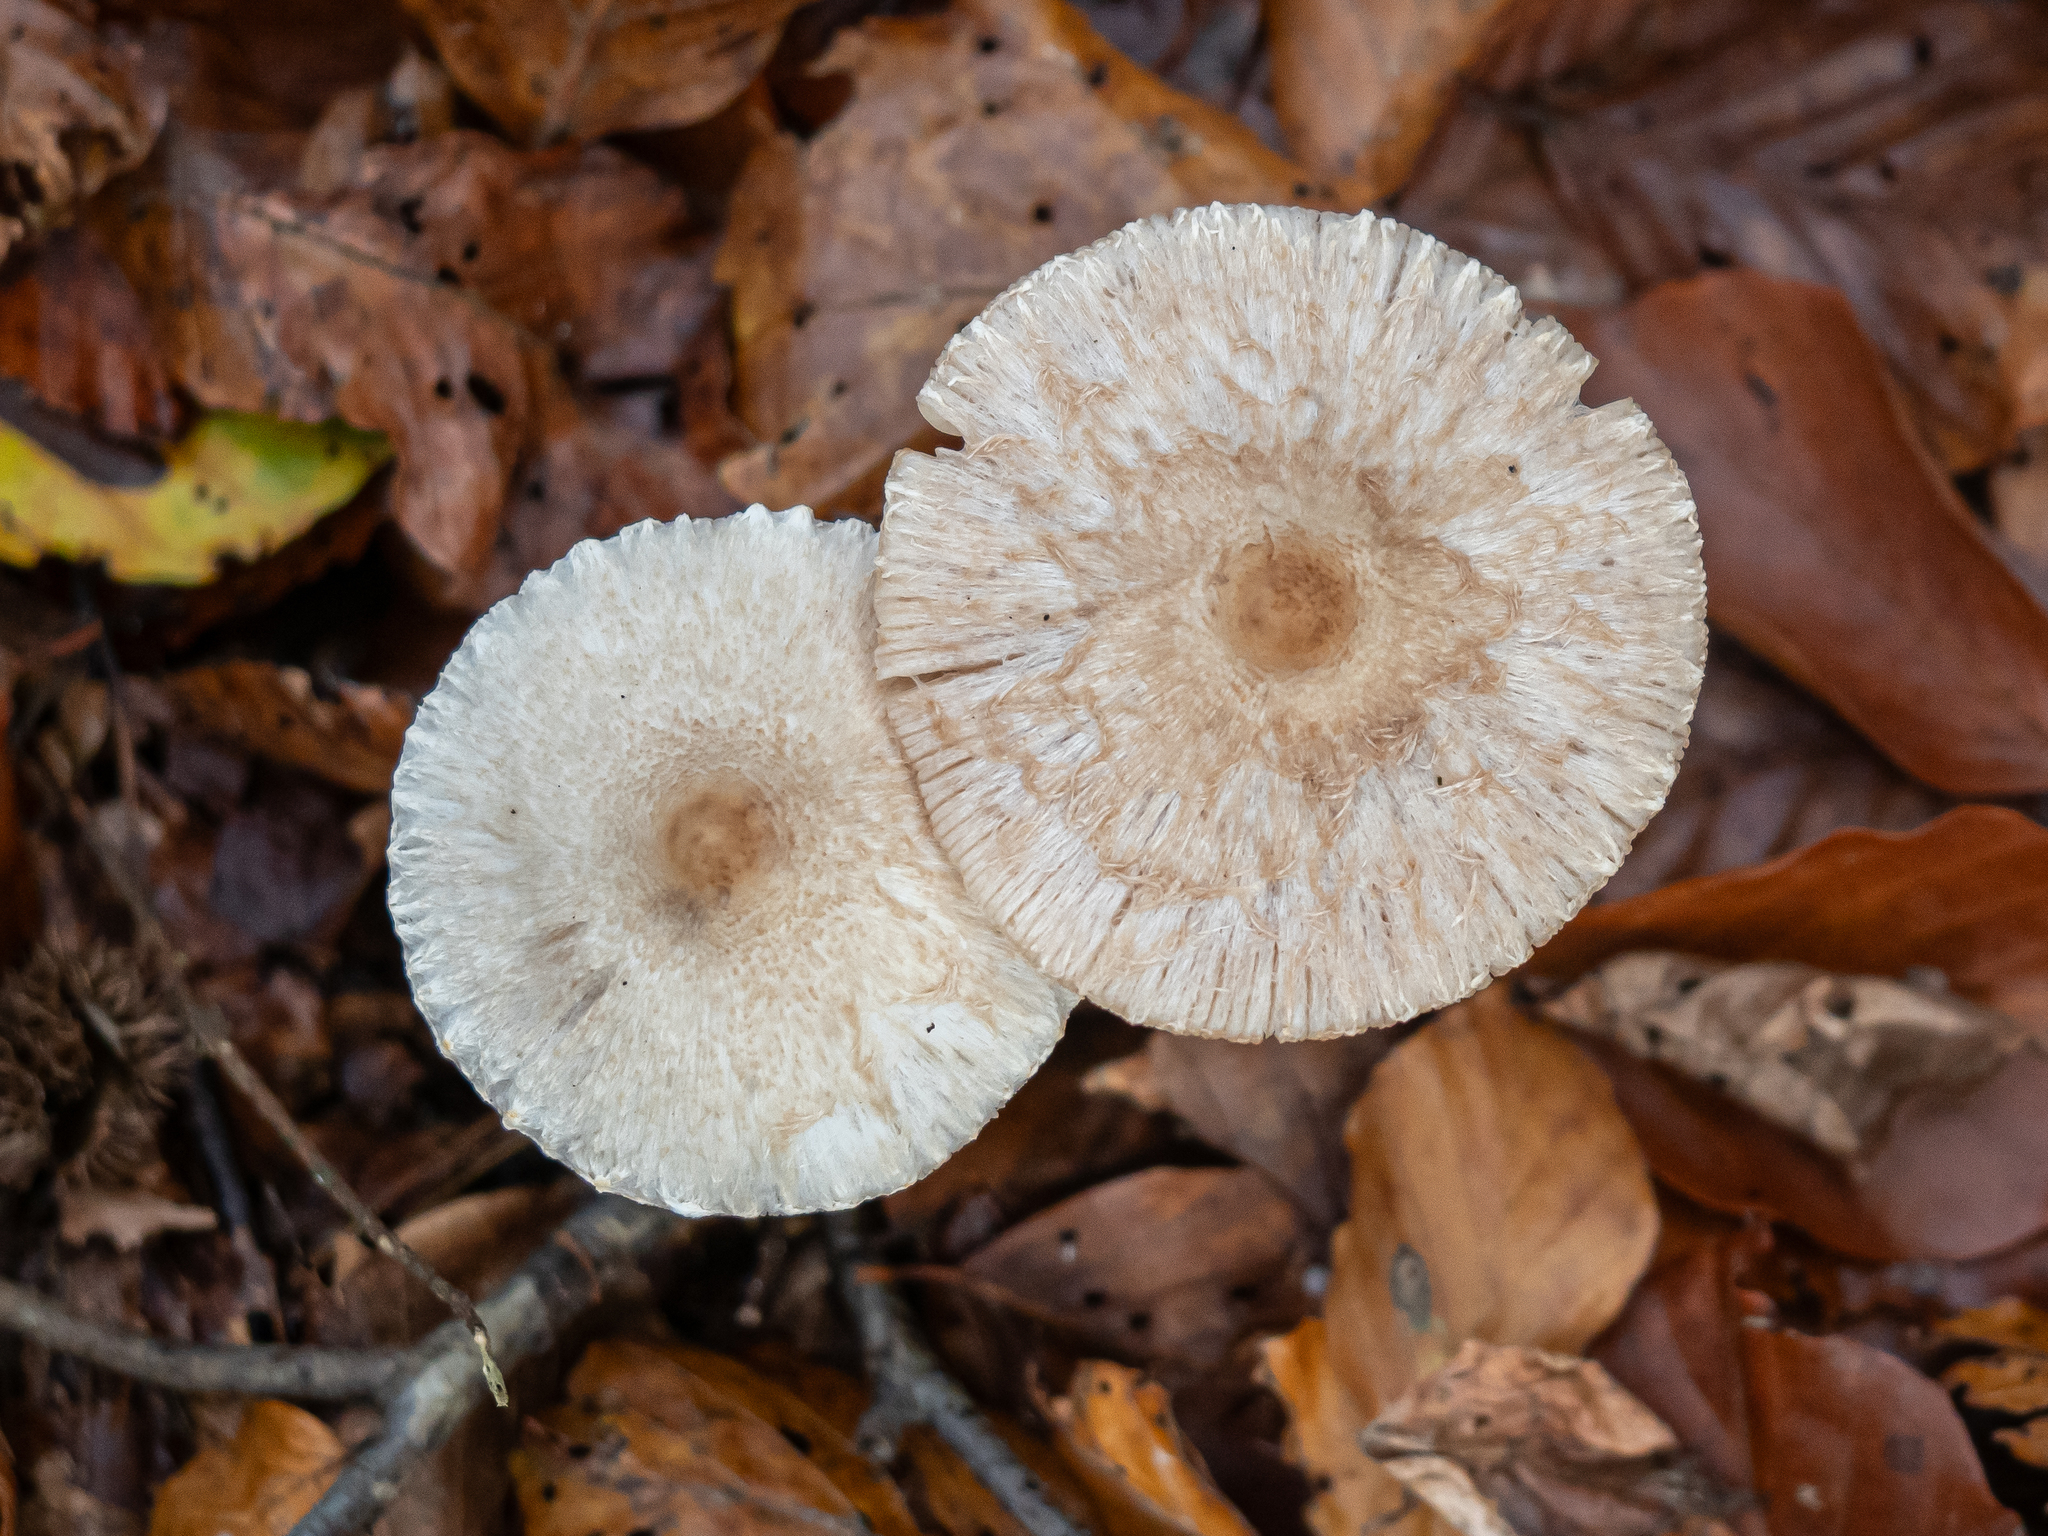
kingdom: Fungi
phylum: Basidiomycota
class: Agaricomycetes
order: Agaricales
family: Agaricaceae
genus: Lepiota
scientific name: Lepiota clypeolaria
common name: Shield dapperling
